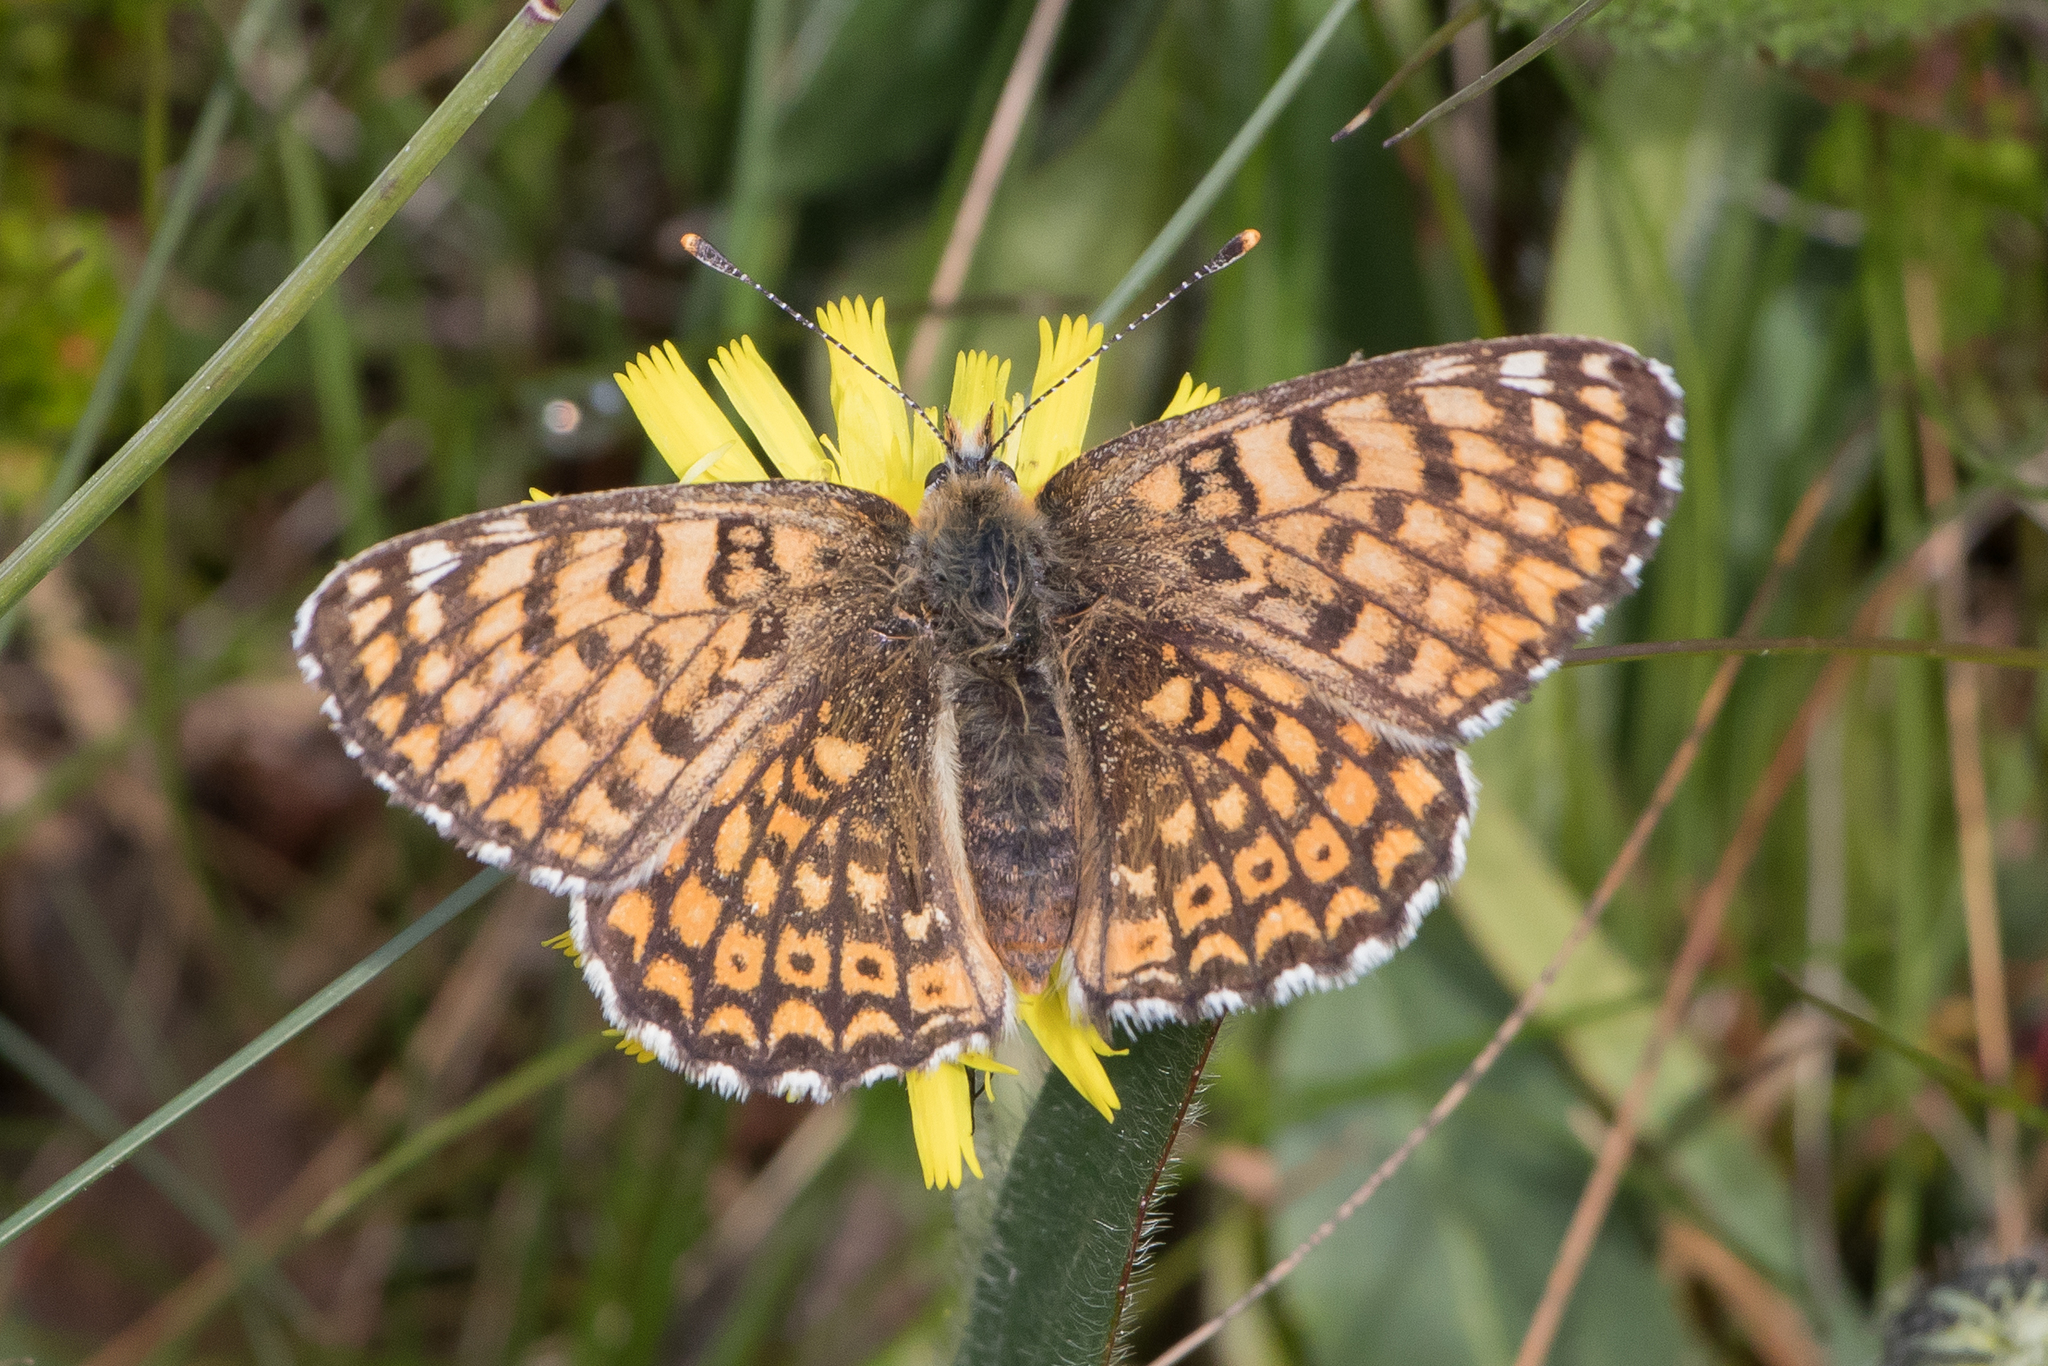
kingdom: Animalia
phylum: Arthropoda
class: Insecta
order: Lepidoptera
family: Nymphalidae
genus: Melitaea
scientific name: Melitaea cinxia
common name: Glanville fritillary
